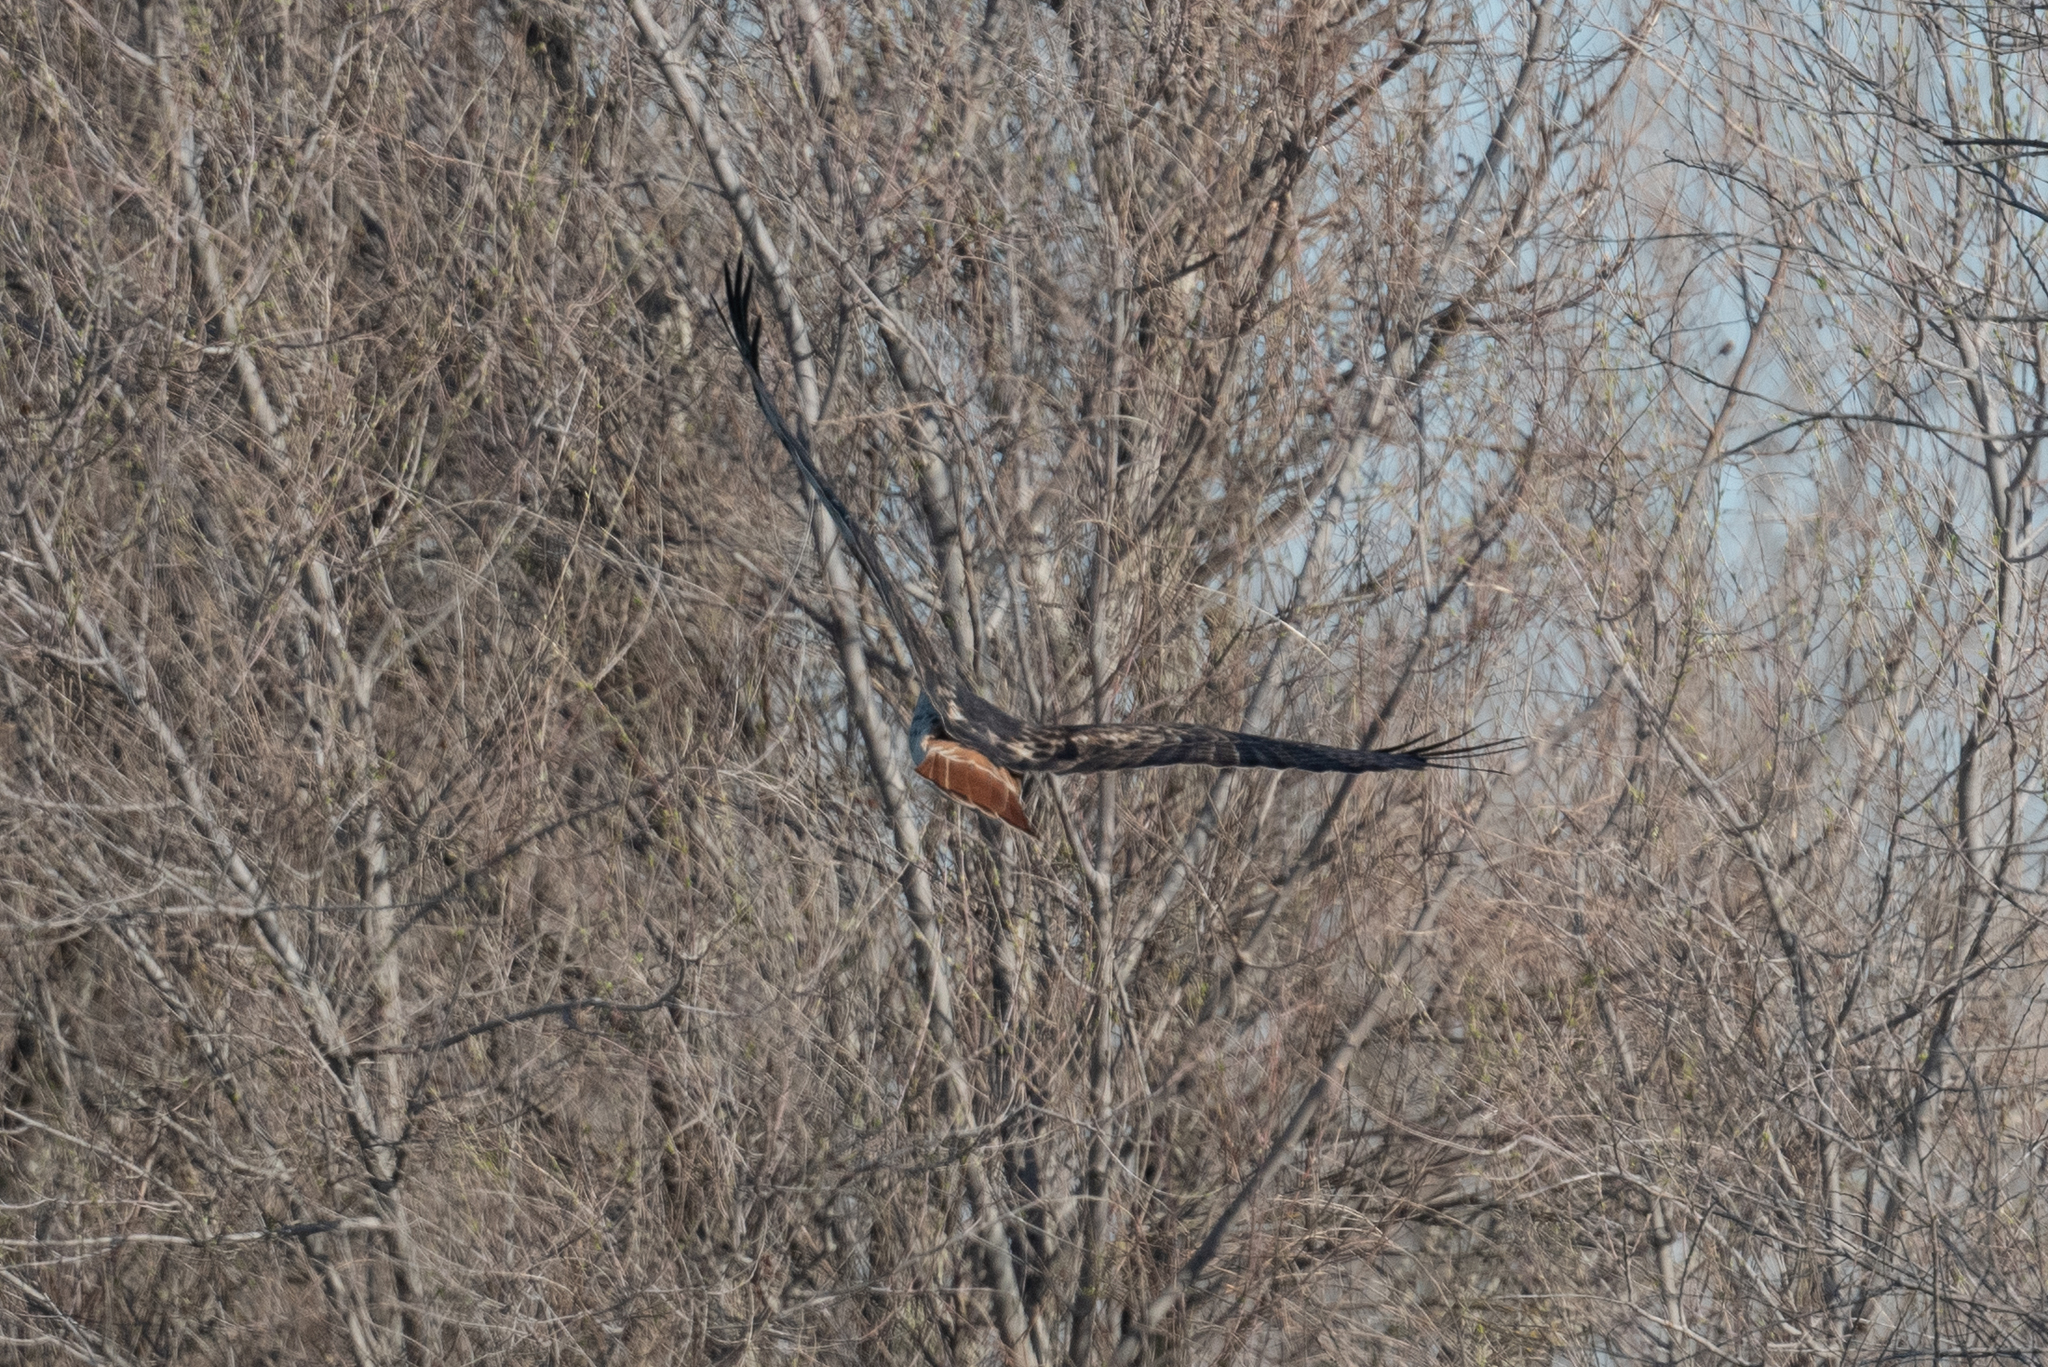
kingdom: Animalia
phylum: Chordata
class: Aves
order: Accipitriformes
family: Accipitridae
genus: Buteo
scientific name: Buteo jamaicensis
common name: Red-tailed hawk
